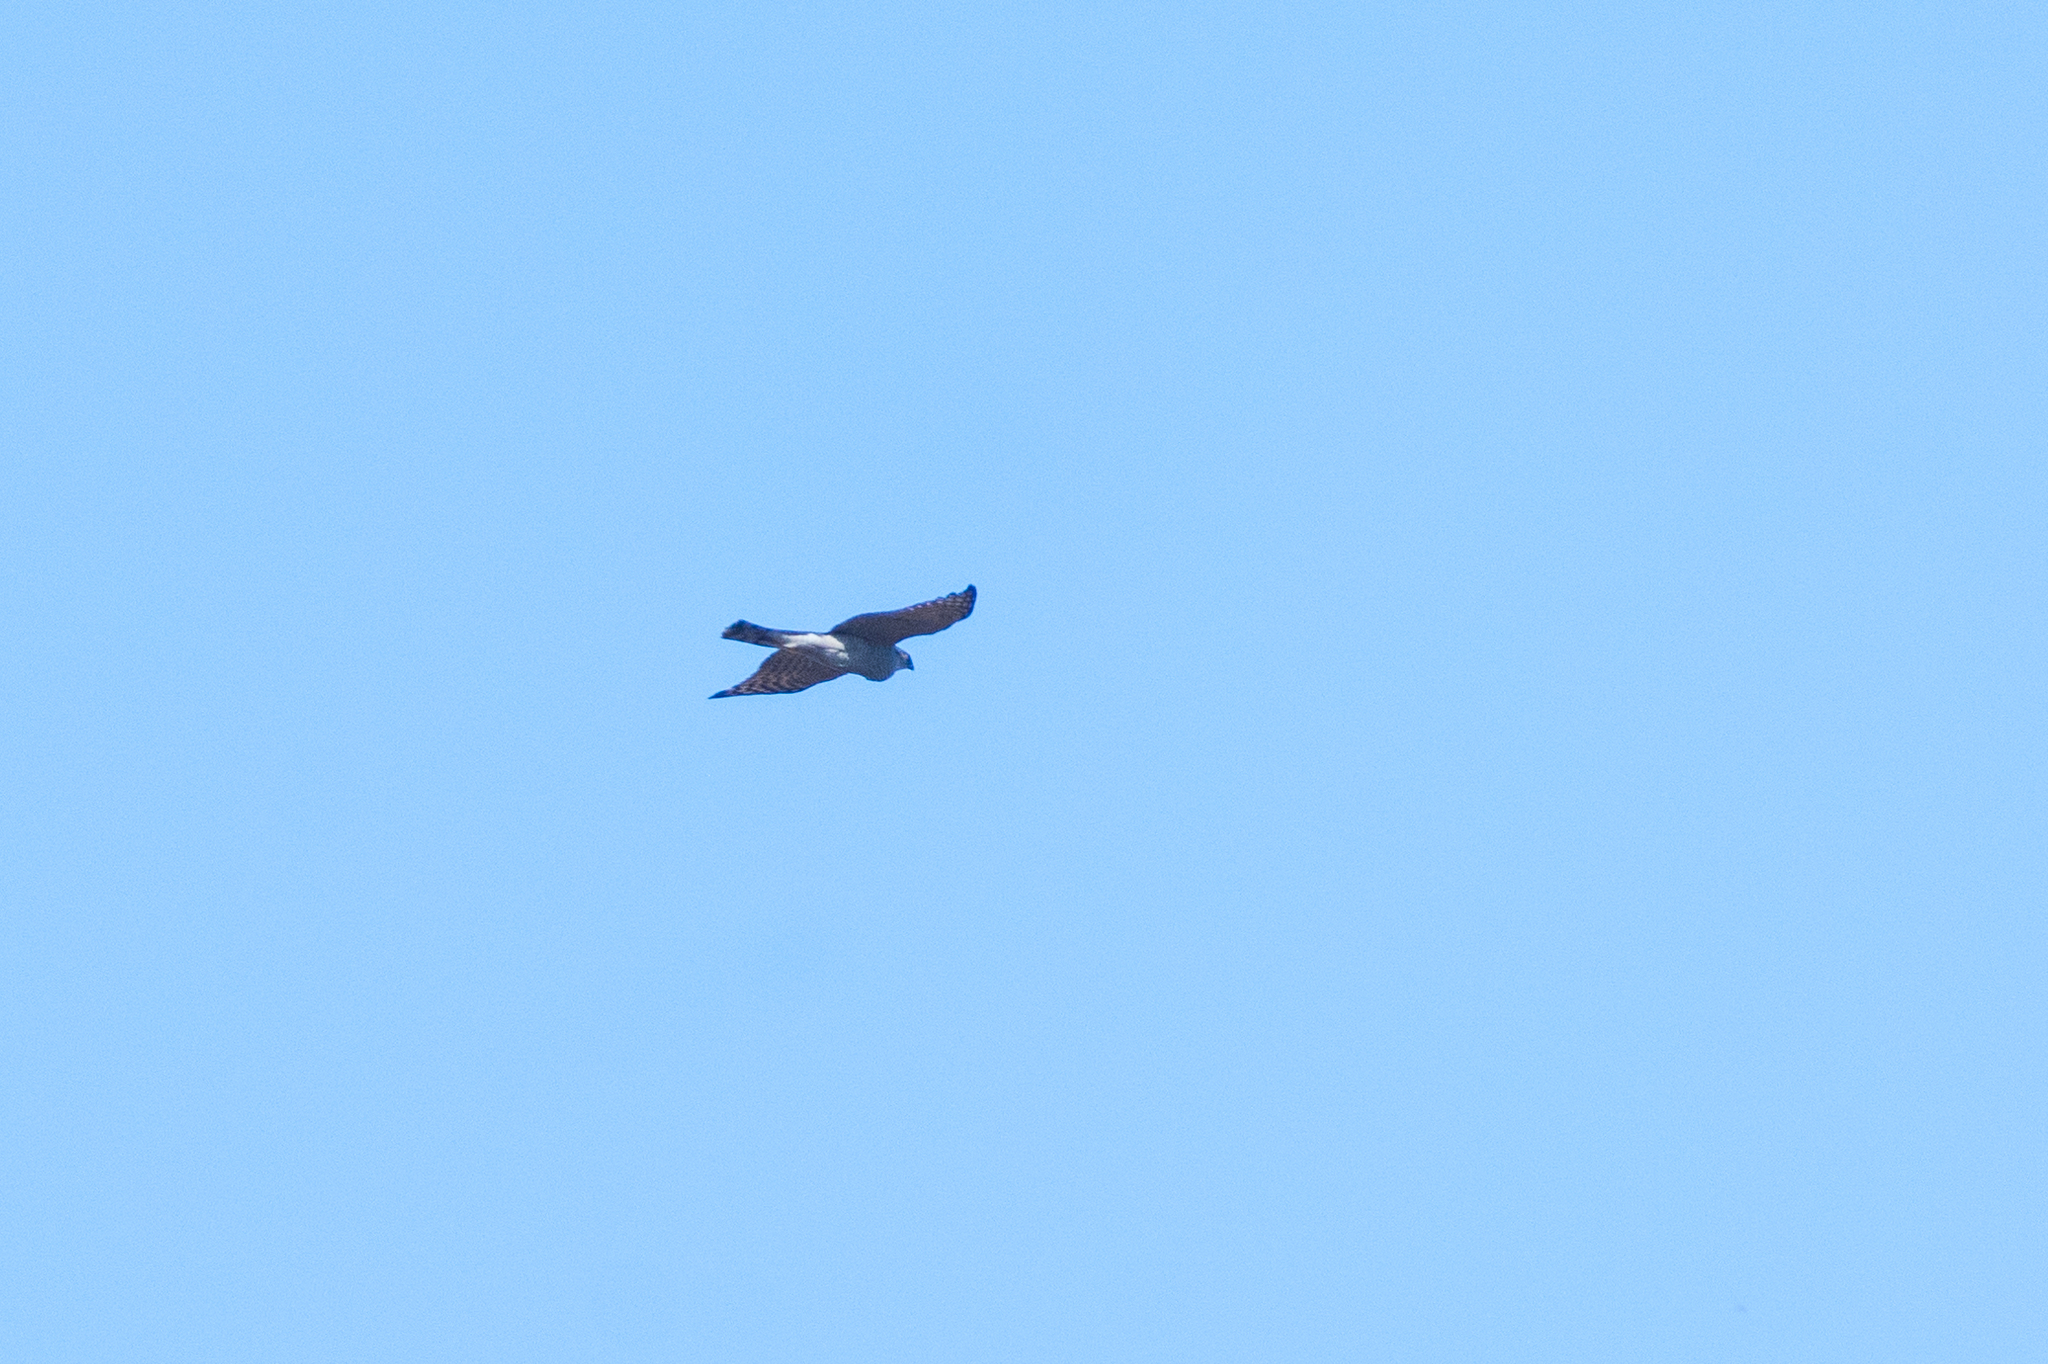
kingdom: Animalia
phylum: Chordata
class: Aves
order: Accipitriformes
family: Accipitridae
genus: Accipiter
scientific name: Accipiter nisus
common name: Eurasian sparrowhawk
